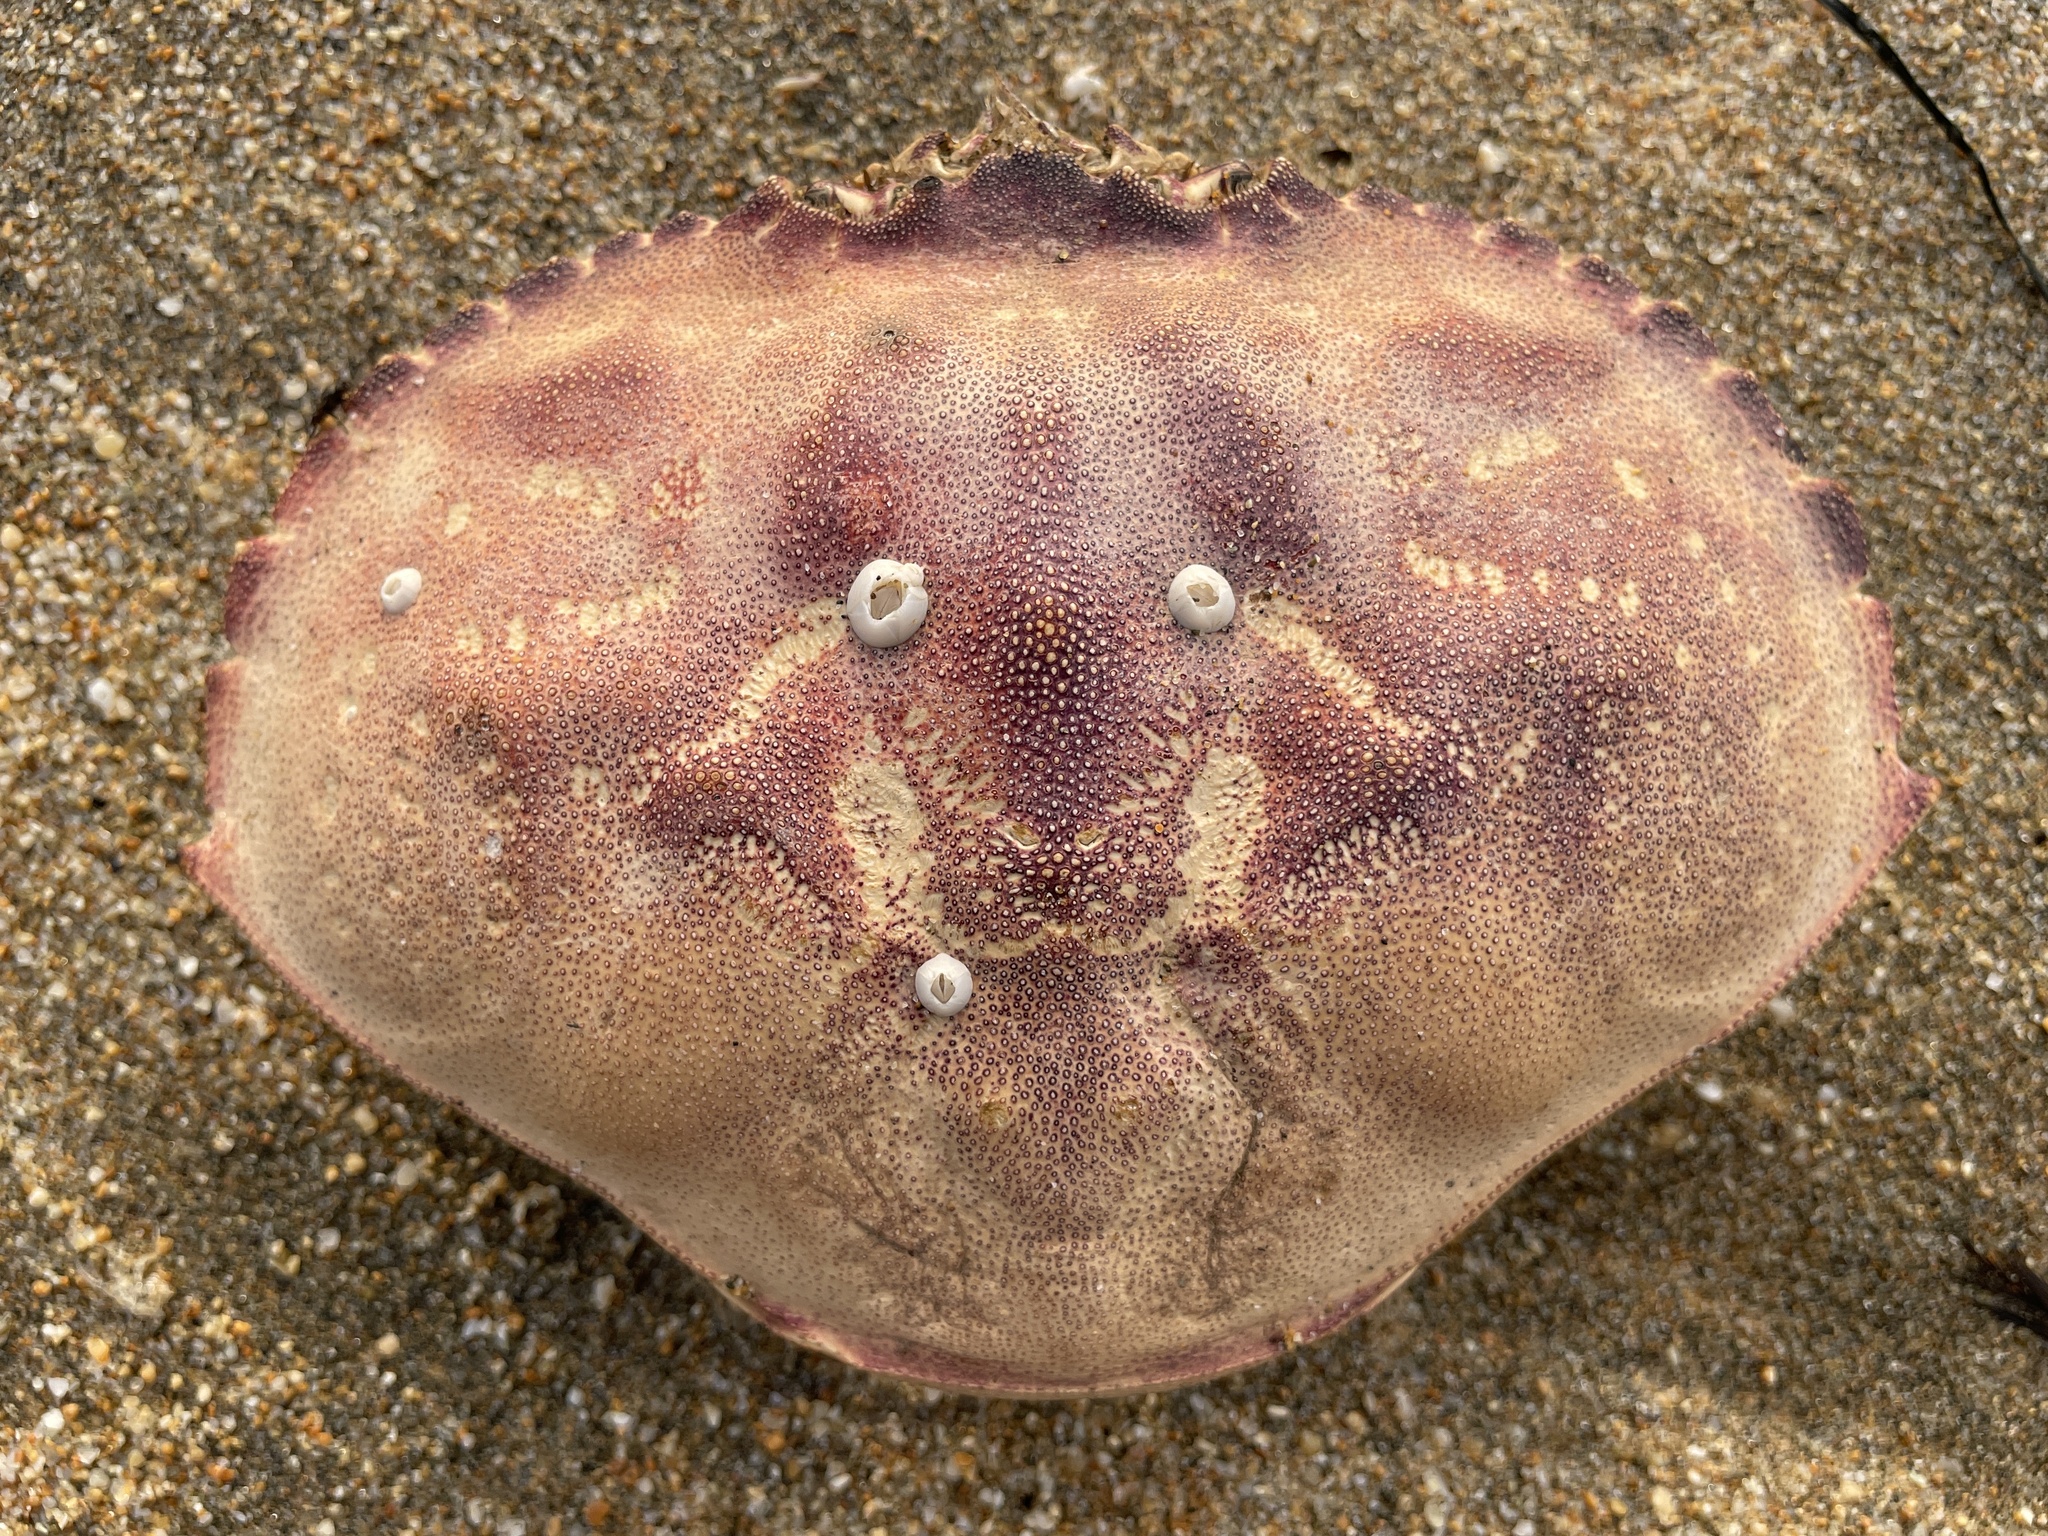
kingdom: Animalia
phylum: Arthropoda
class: Malacostraca
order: Decapoda
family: Cancridae
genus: Metacarcinus
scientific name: Metacarcinus magister
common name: Californian crab
